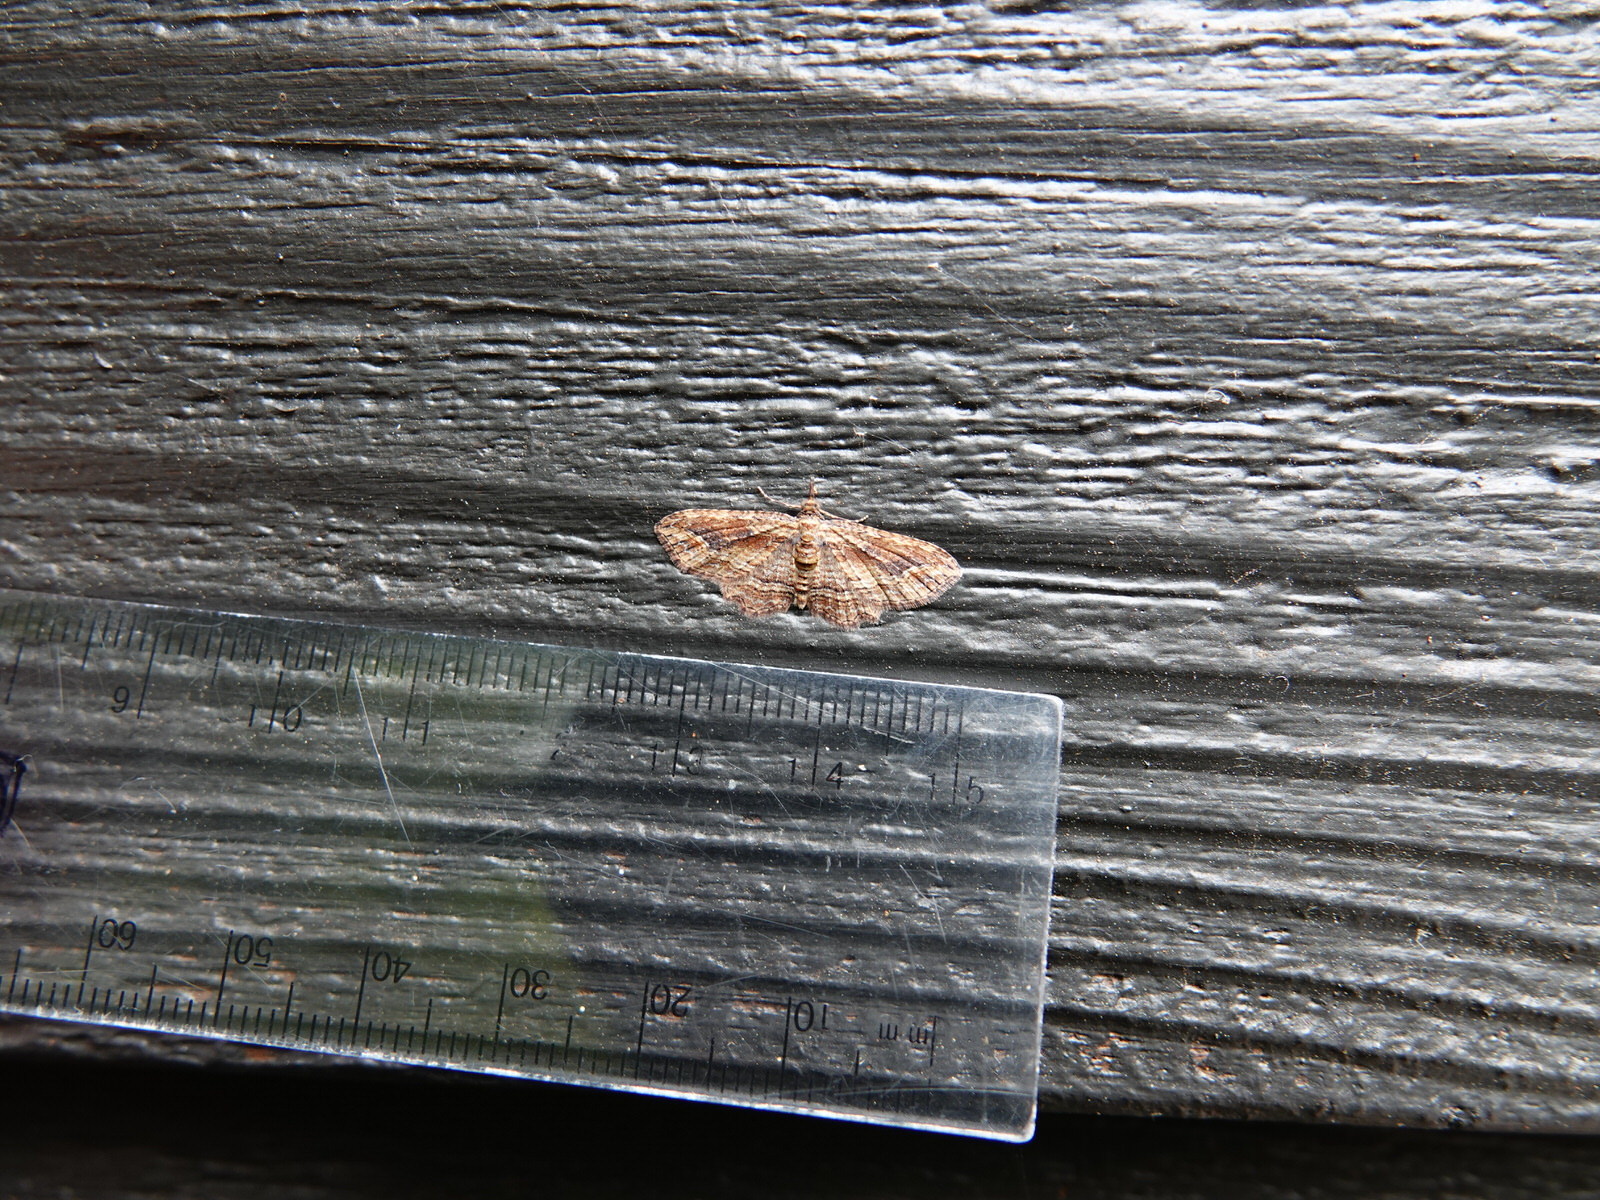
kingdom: Animalia
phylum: Arthropoda
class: Insecta
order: Lepidoptera
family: Geometridae
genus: Chloroclystis
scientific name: Chloroclystis filata
